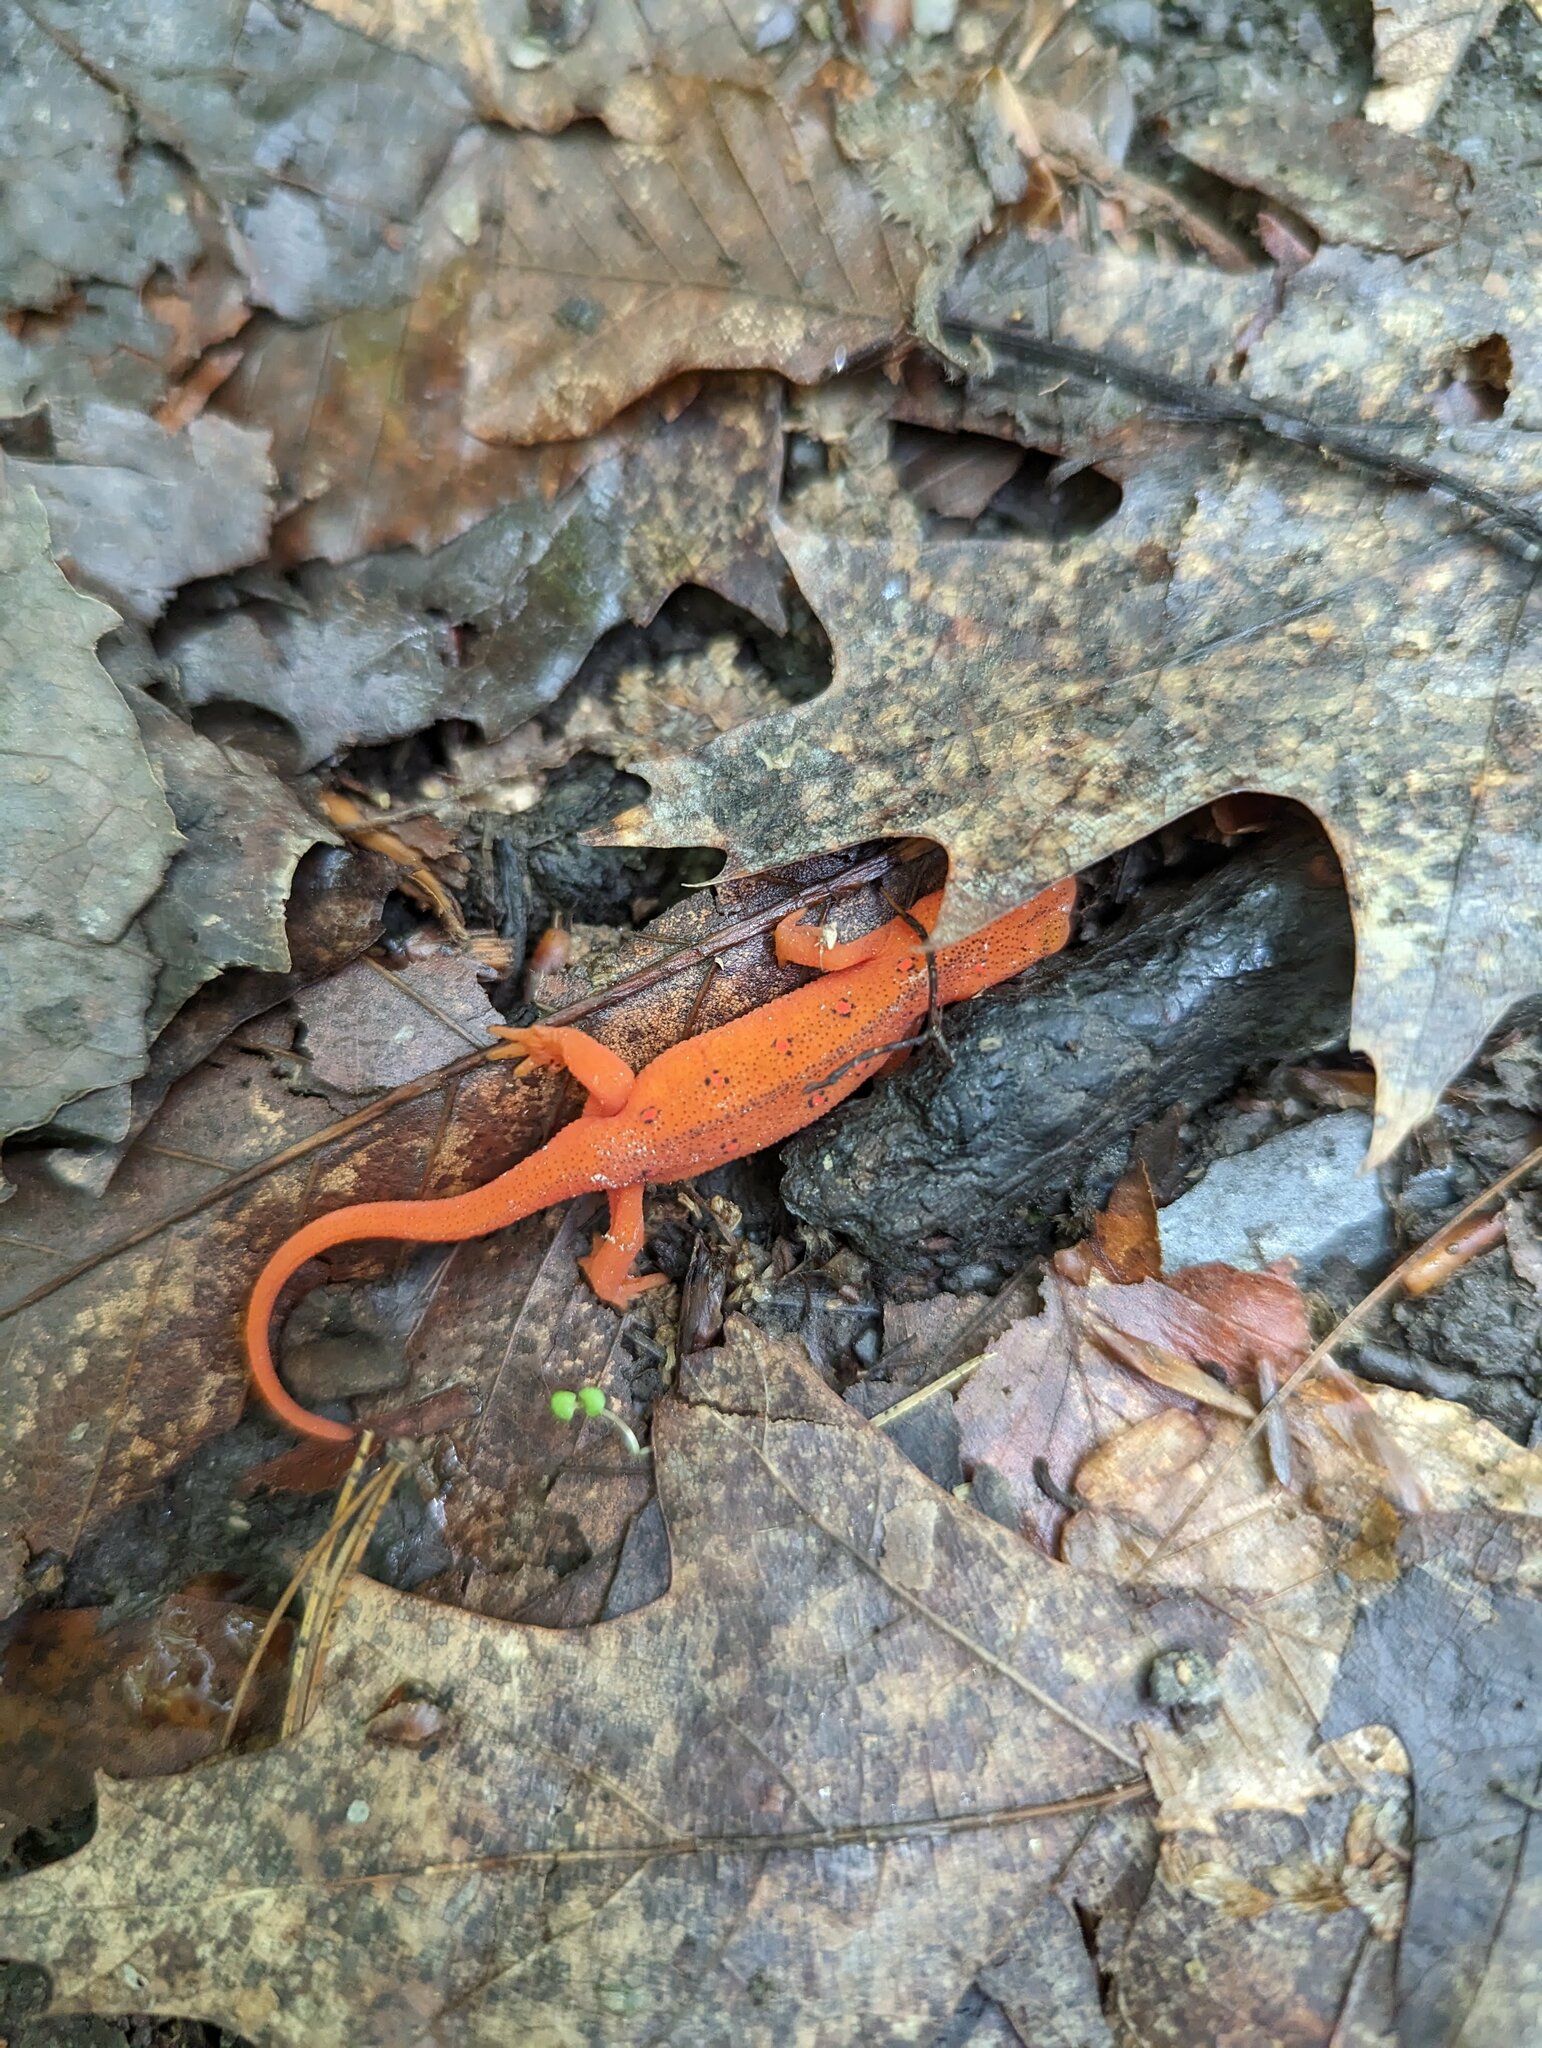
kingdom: Animalia
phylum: Chordata
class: Amphibia
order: Caudata
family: Salamandridae
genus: Notophthalmus
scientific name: Notophthalmus viridescens
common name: Eastern newt
